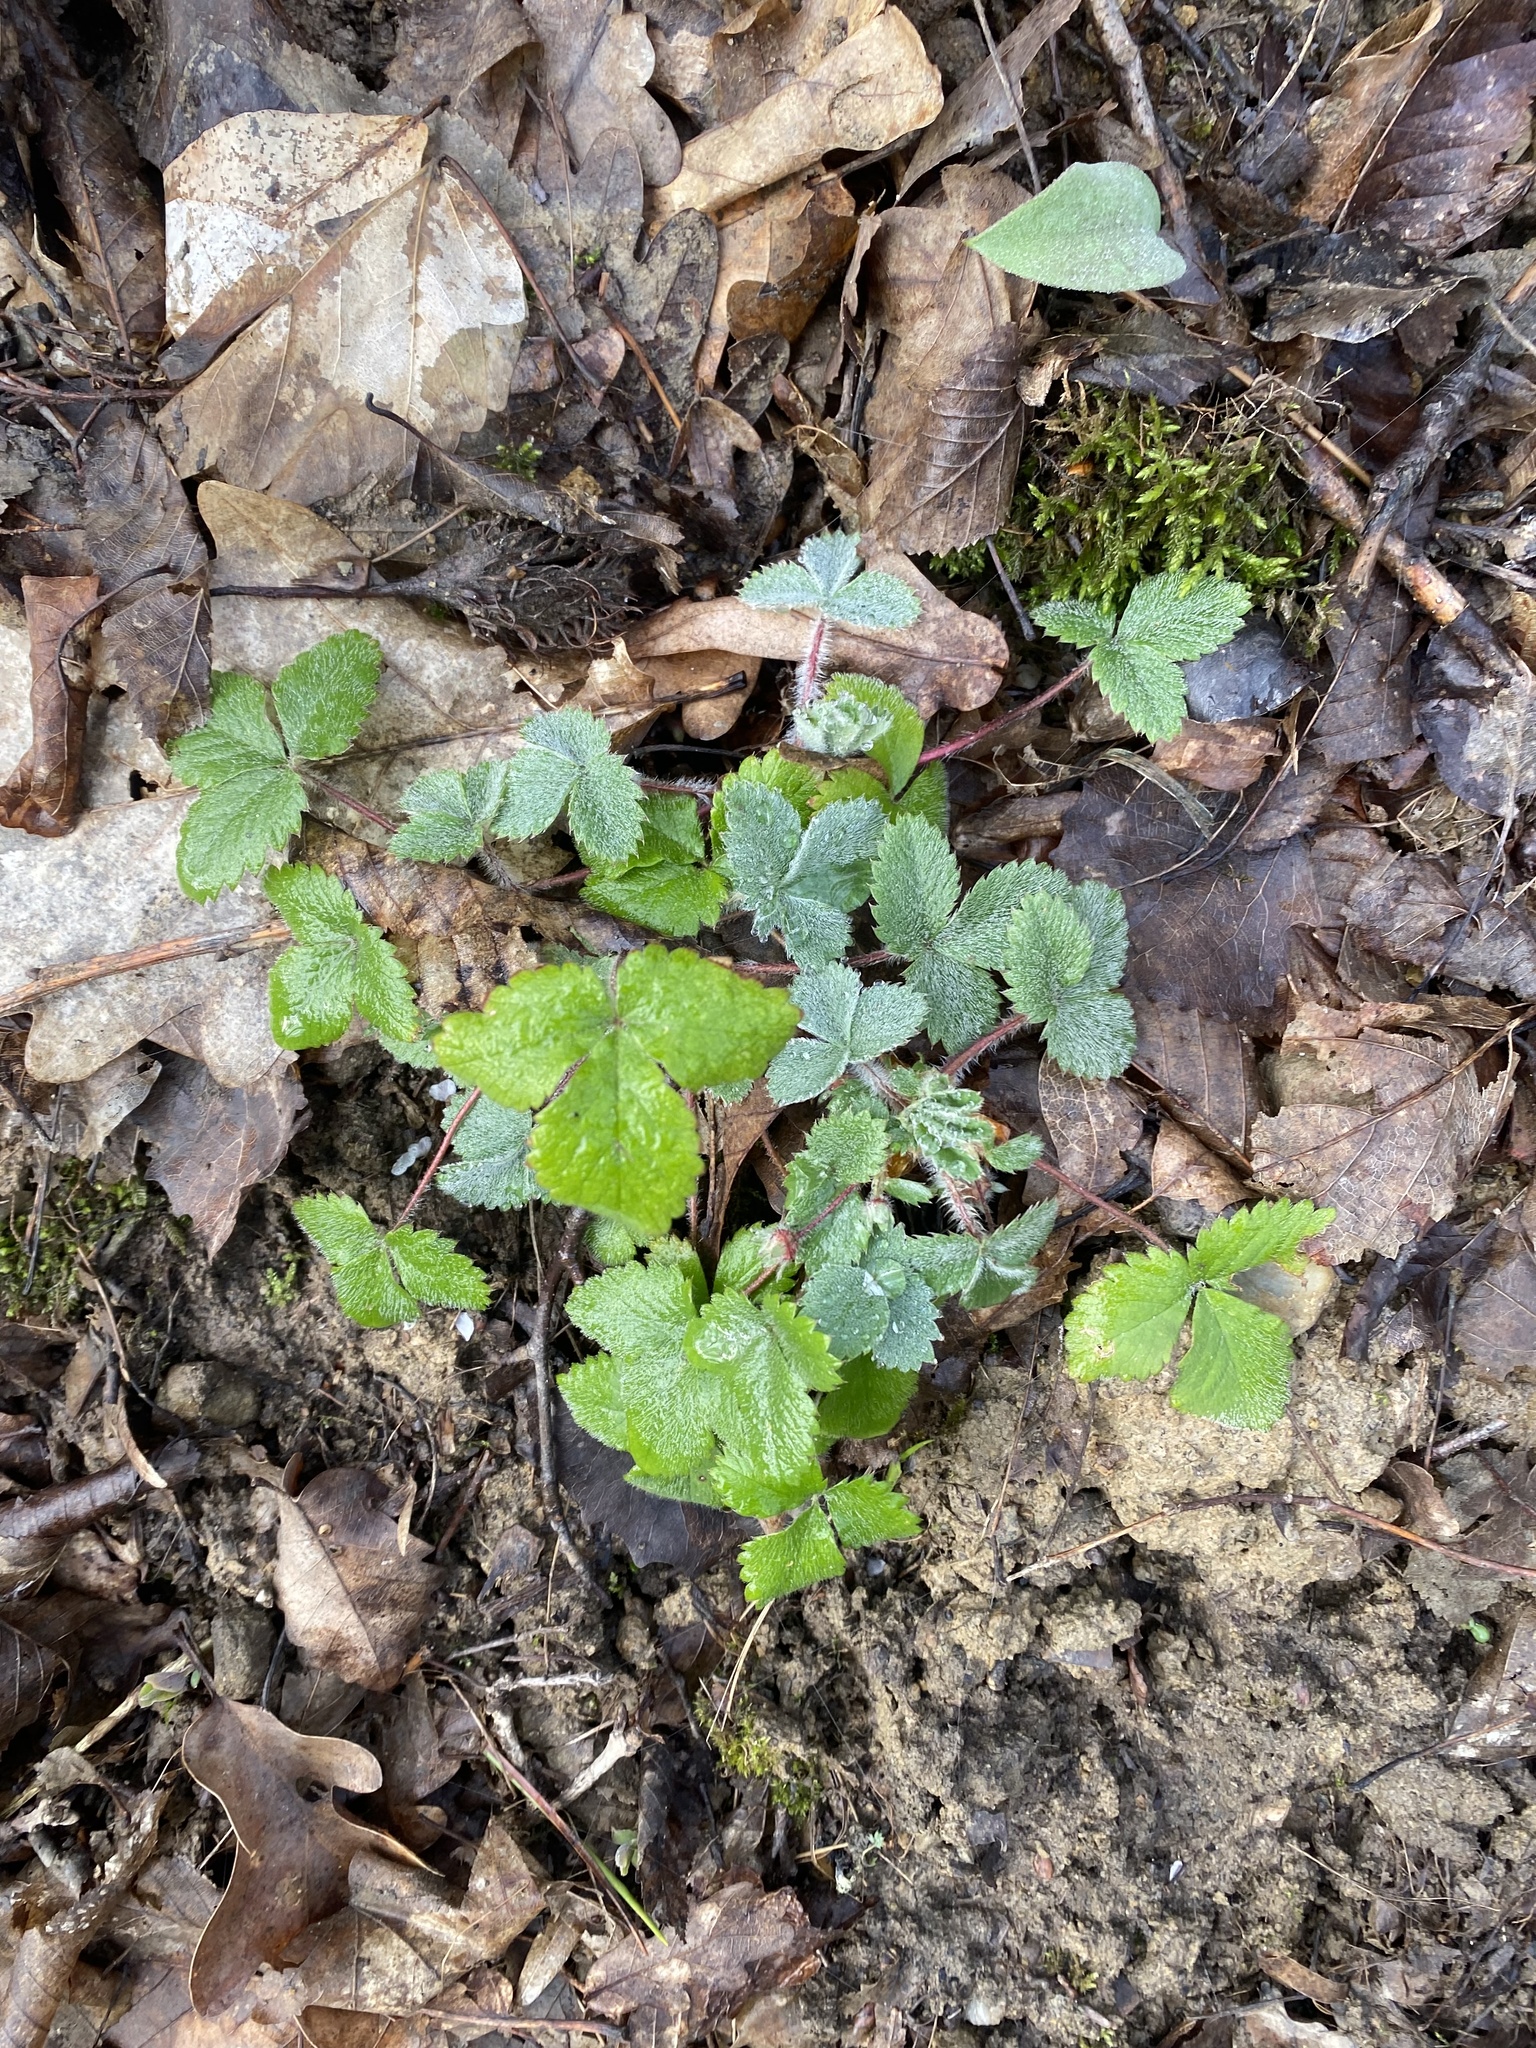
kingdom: Plantae
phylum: Tracheophyta
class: Magnoliopsida
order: Rosales
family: Rosaceae
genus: Potentilla
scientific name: Potentilla micrantha
